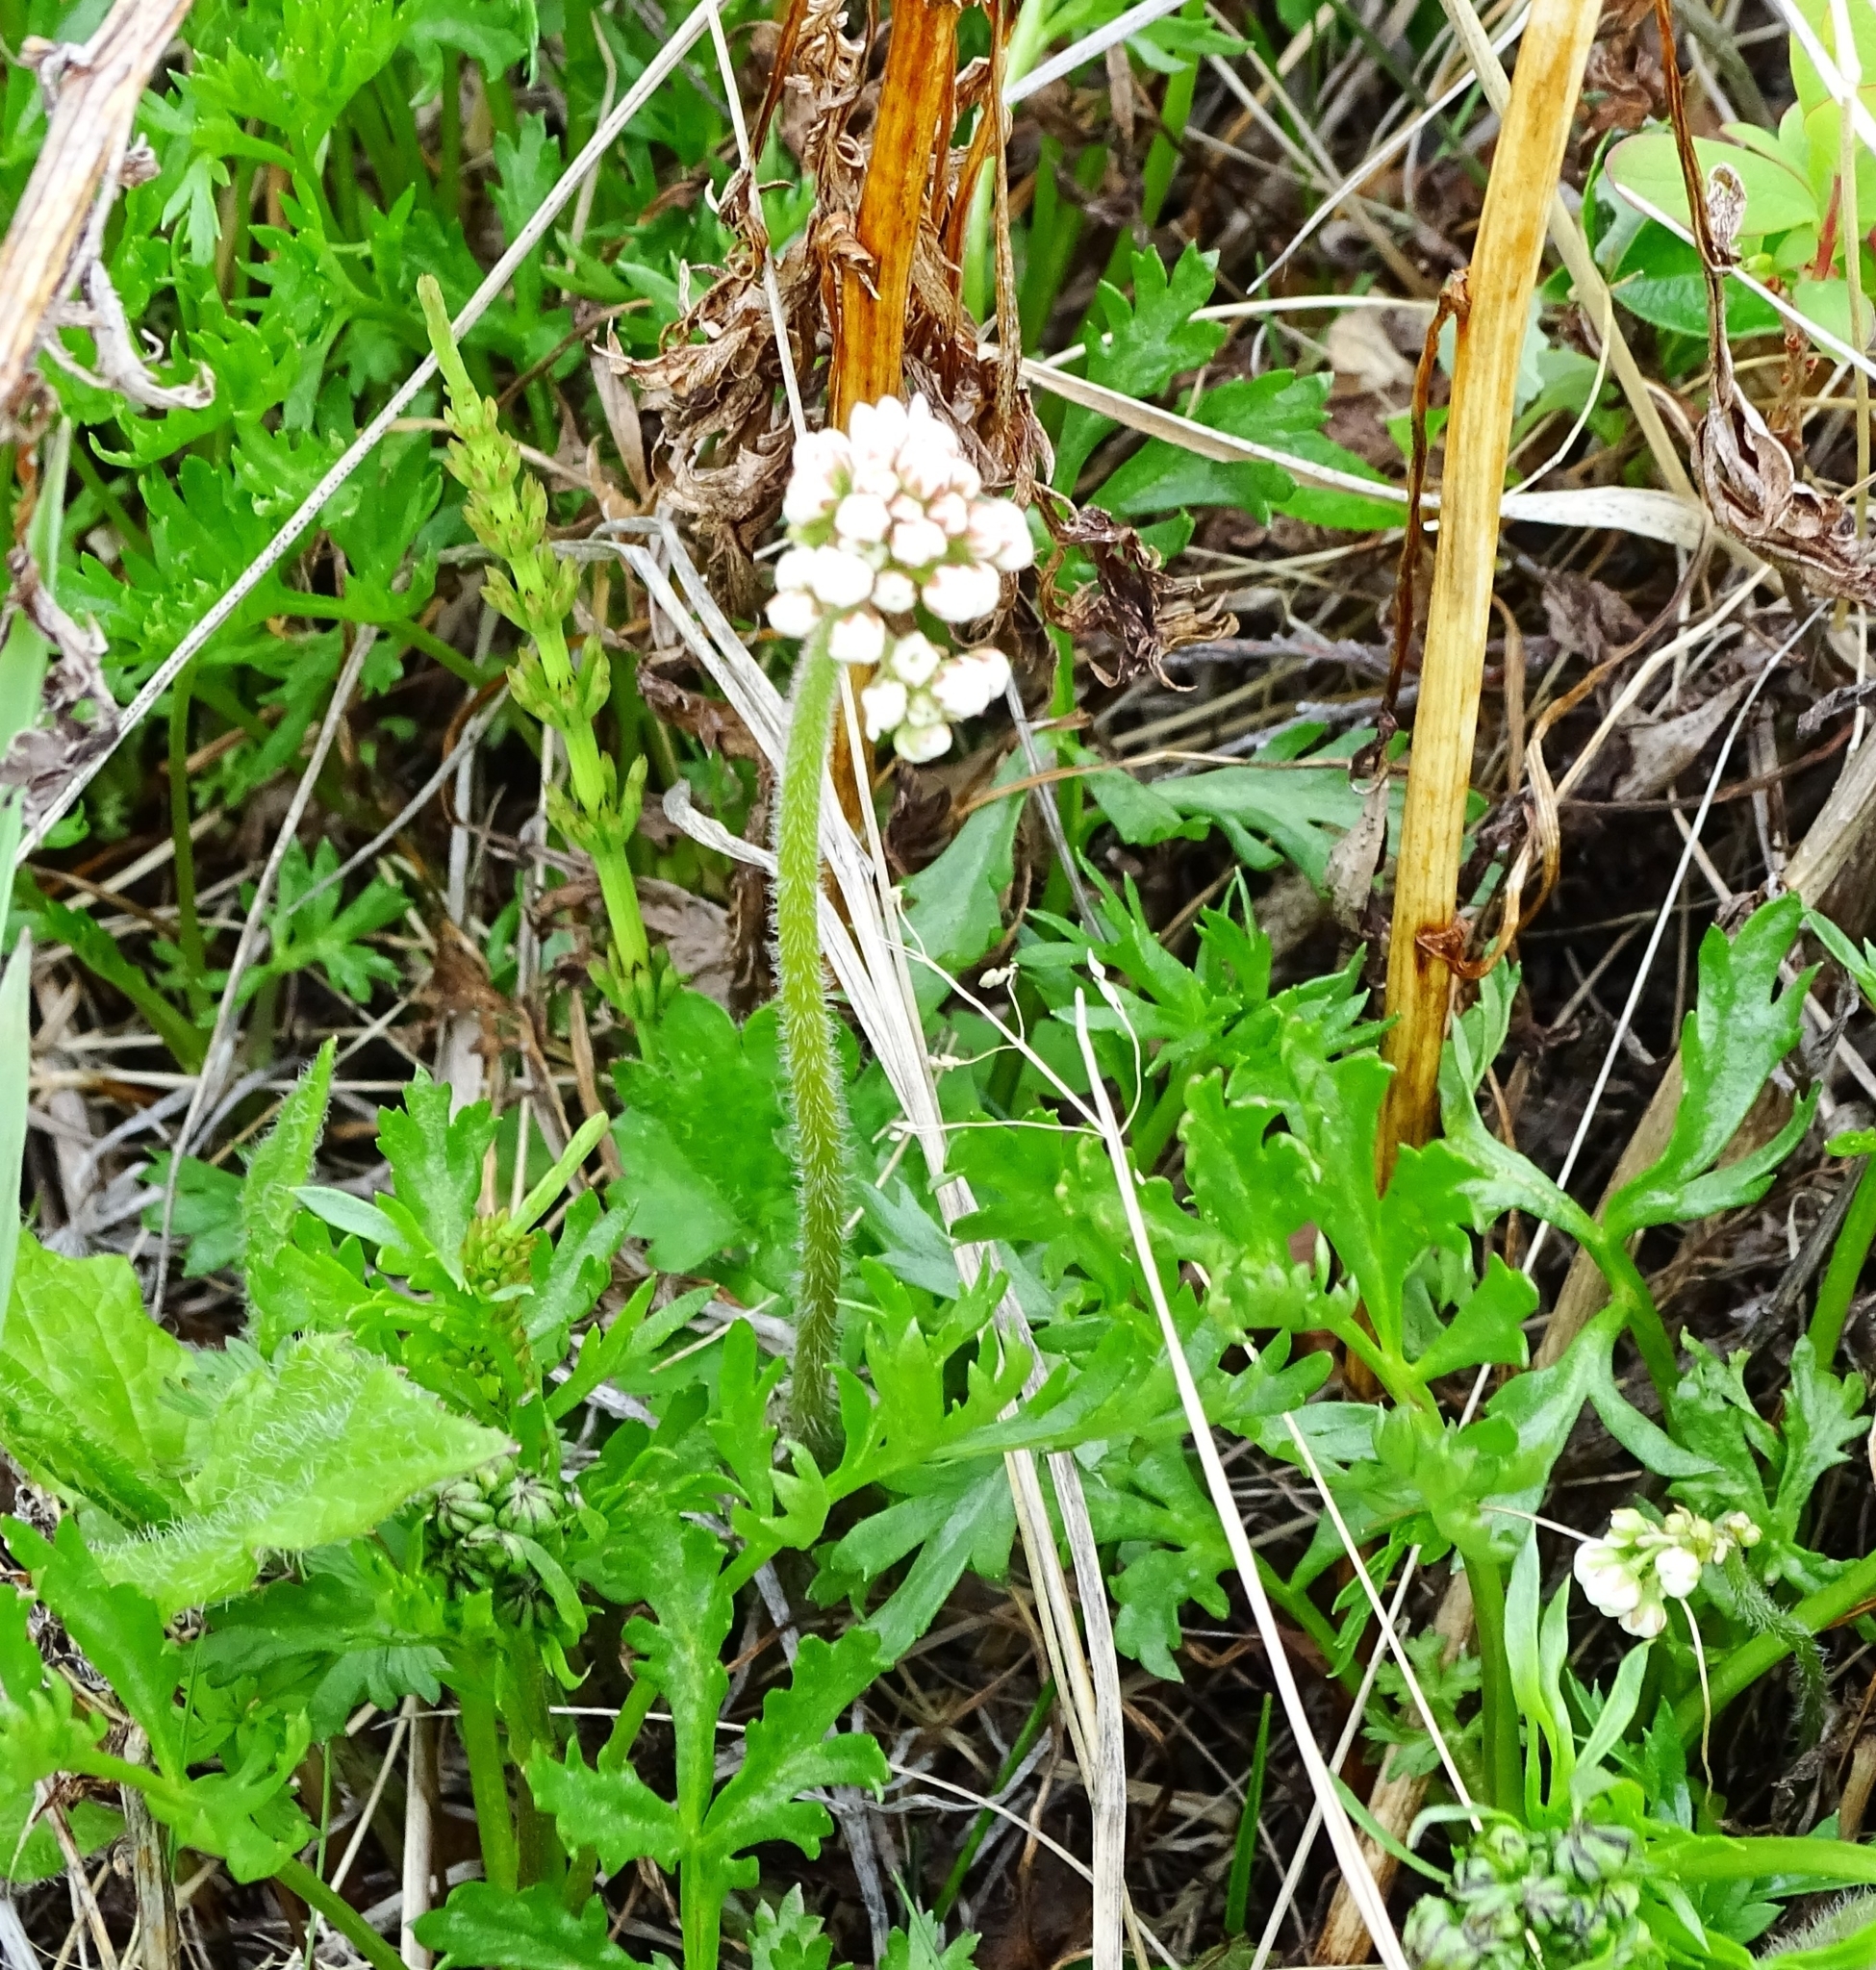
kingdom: Plantae
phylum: Tracheophyta
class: Magnoliopsida
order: Saxifragales
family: Saxifragaceae
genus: Micranthes
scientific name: Micranthes nelsoniana
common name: Nelson's saxifrage
